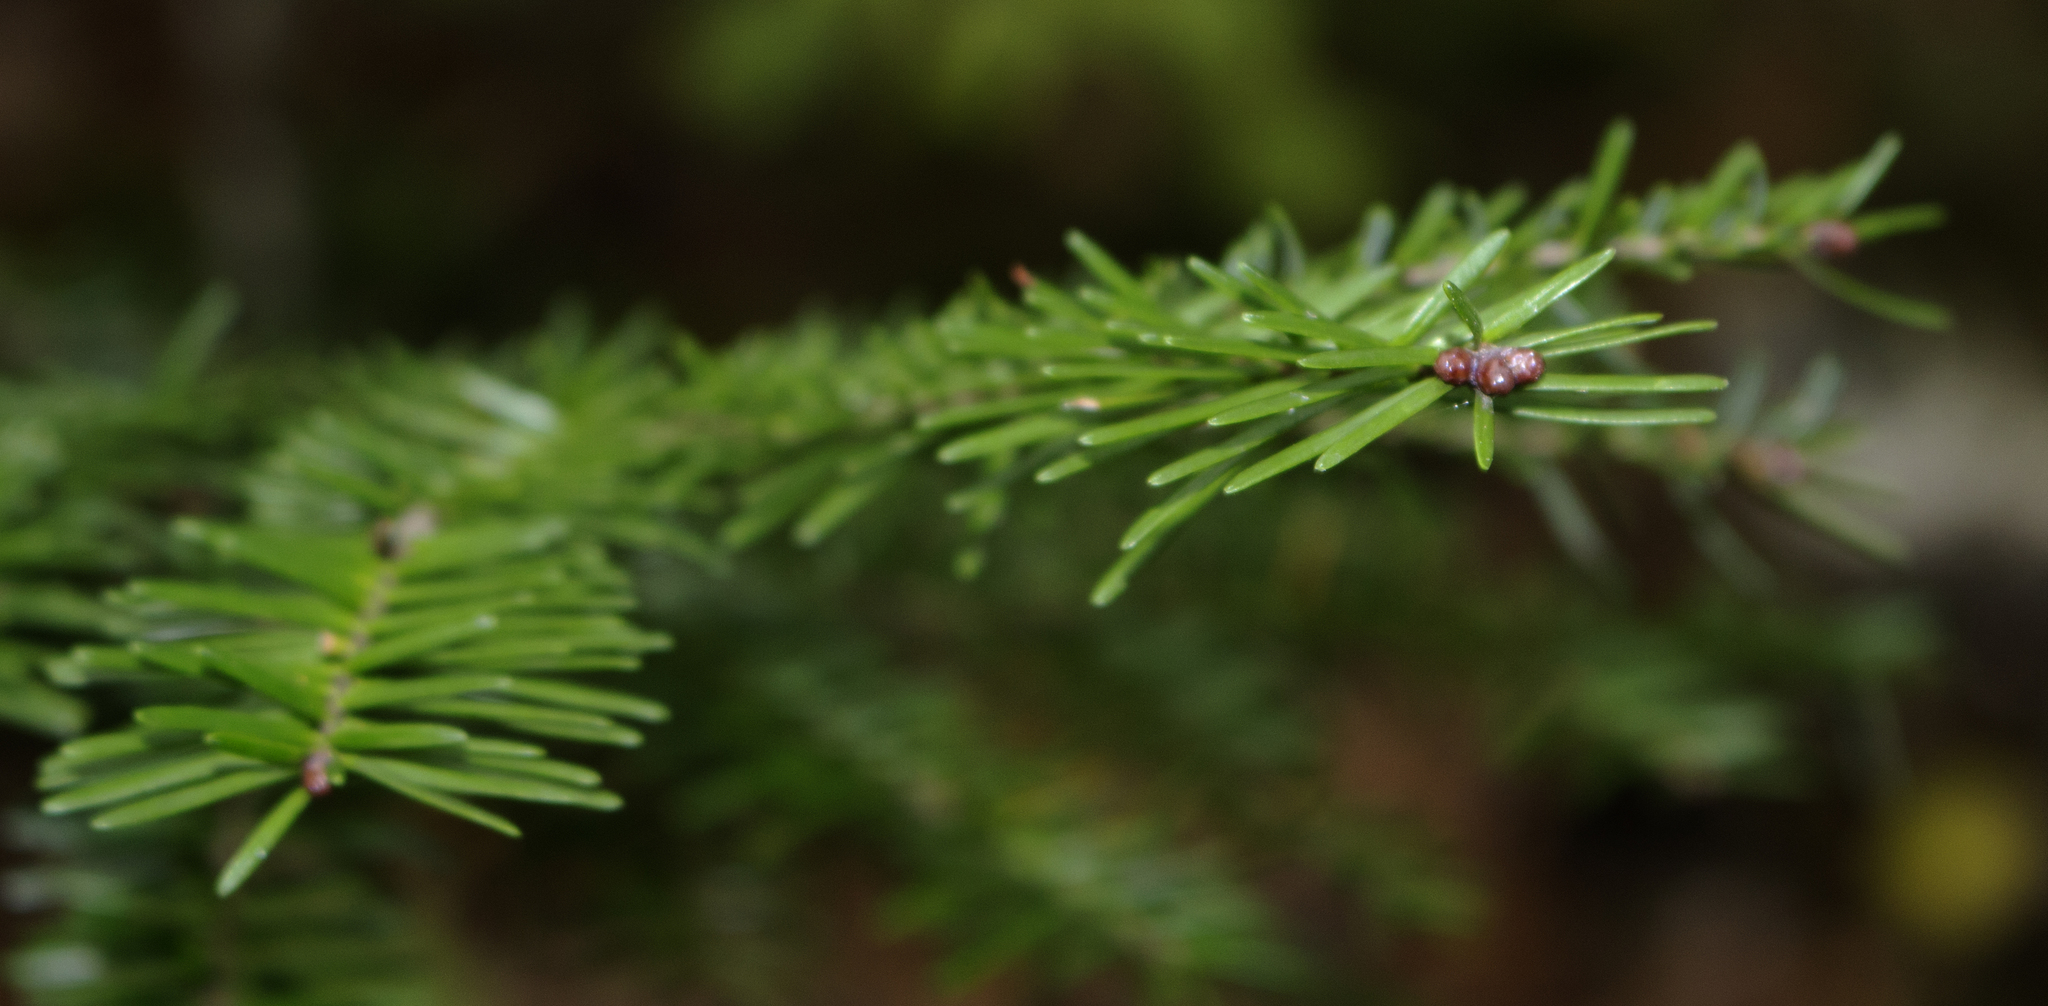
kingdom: Plantae
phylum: Tracheophyta
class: Pinopsida
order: Pinales
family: Pinaceae
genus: Abies
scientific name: Abies balsamea
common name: Balsam fir
